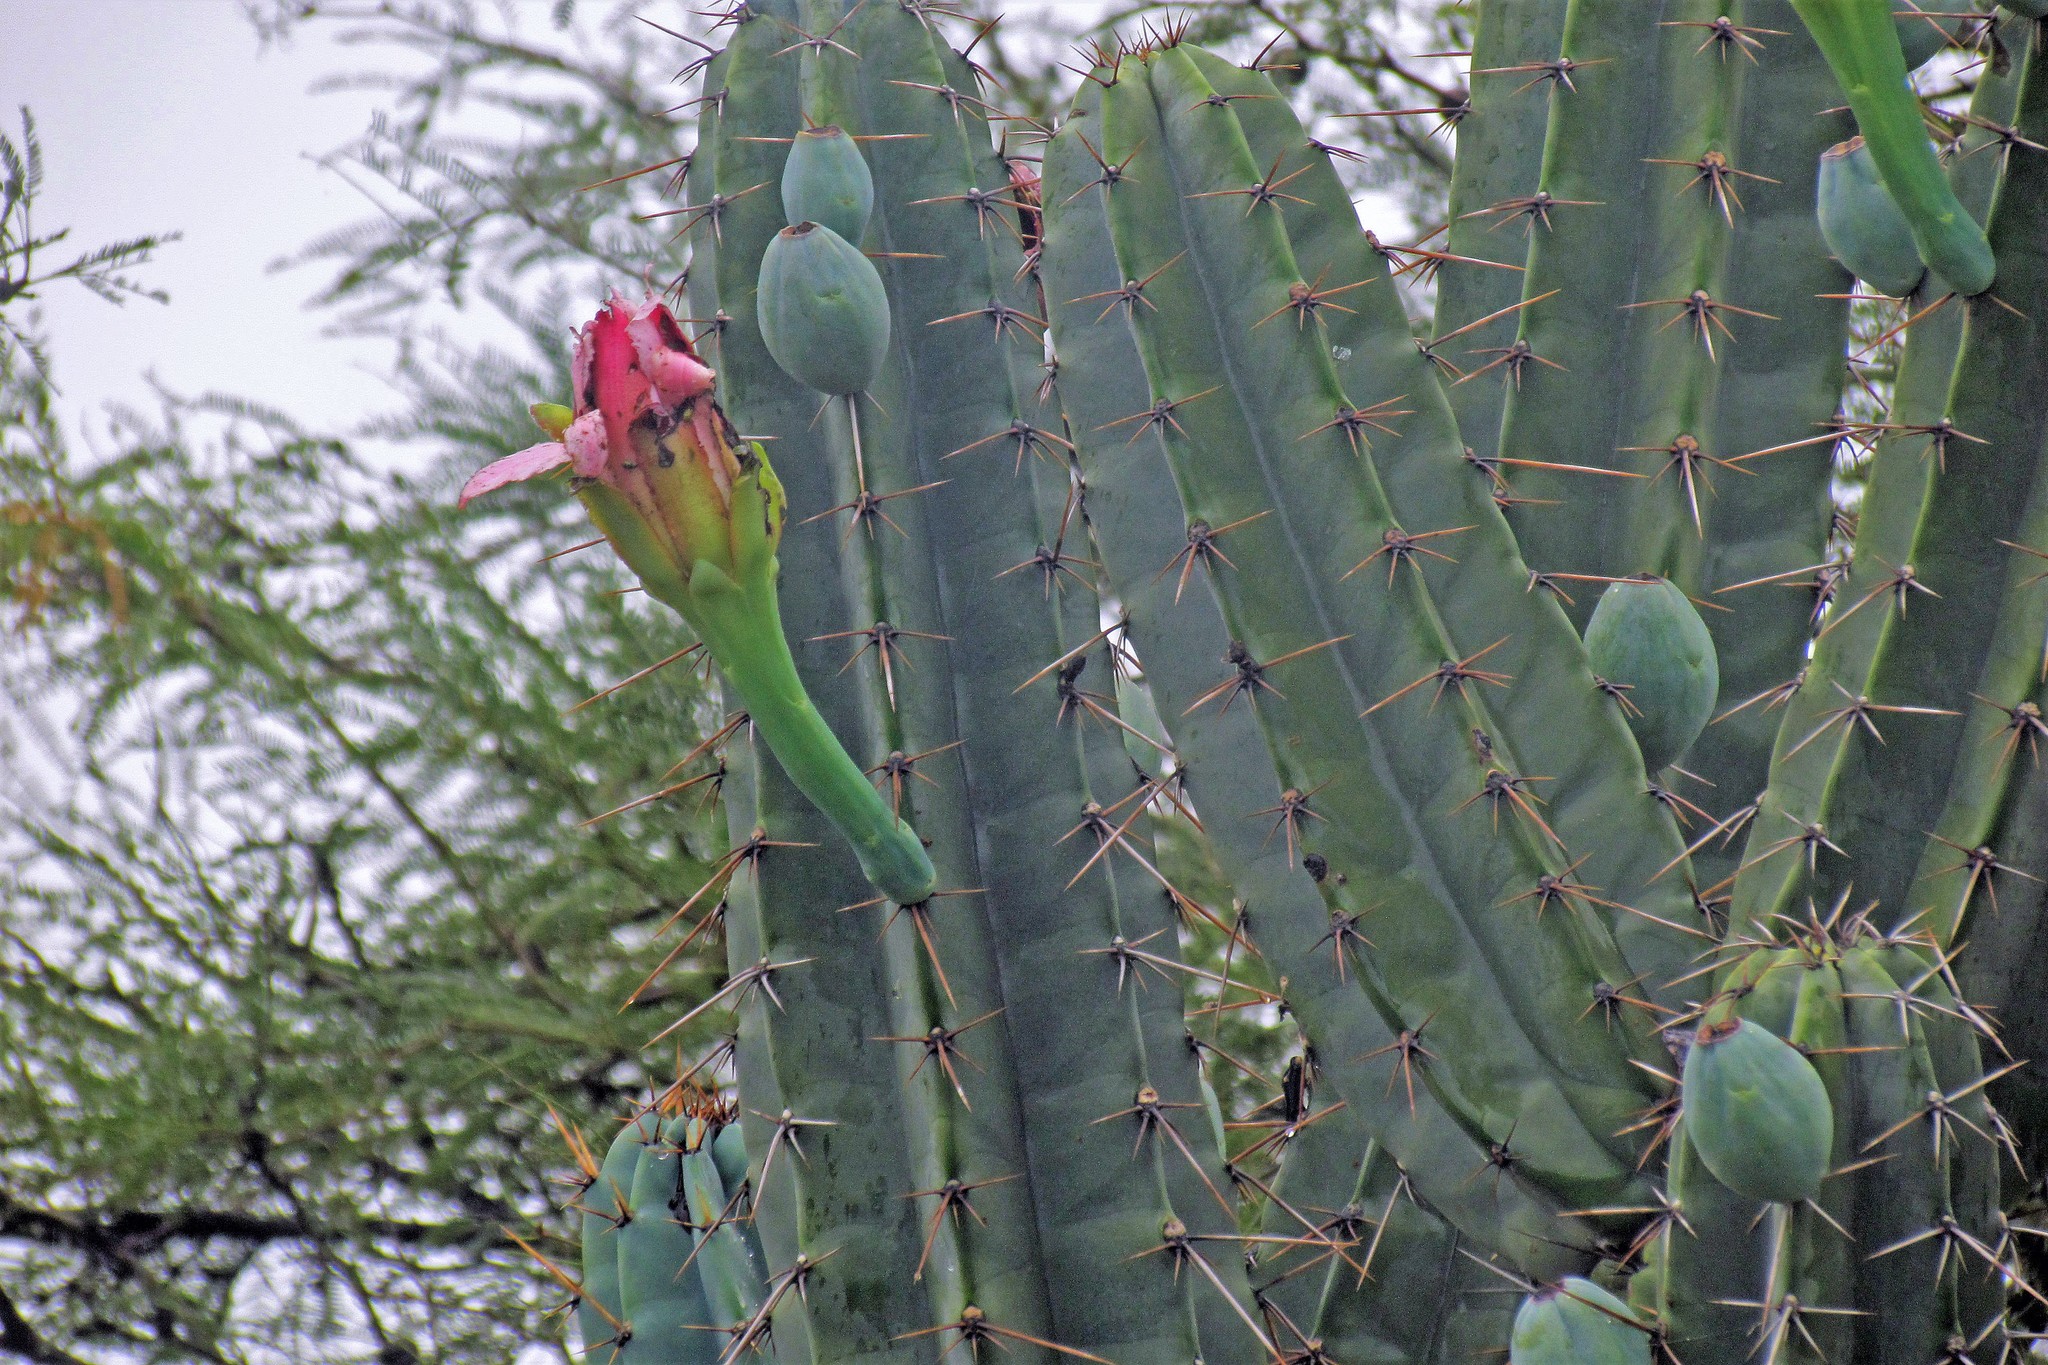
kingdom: Plantae
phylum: Tracheophyta
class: Magnoliopsida
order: Caryophyllales
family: Cactaceae
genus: Cereus
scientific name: Cereus forbesii
